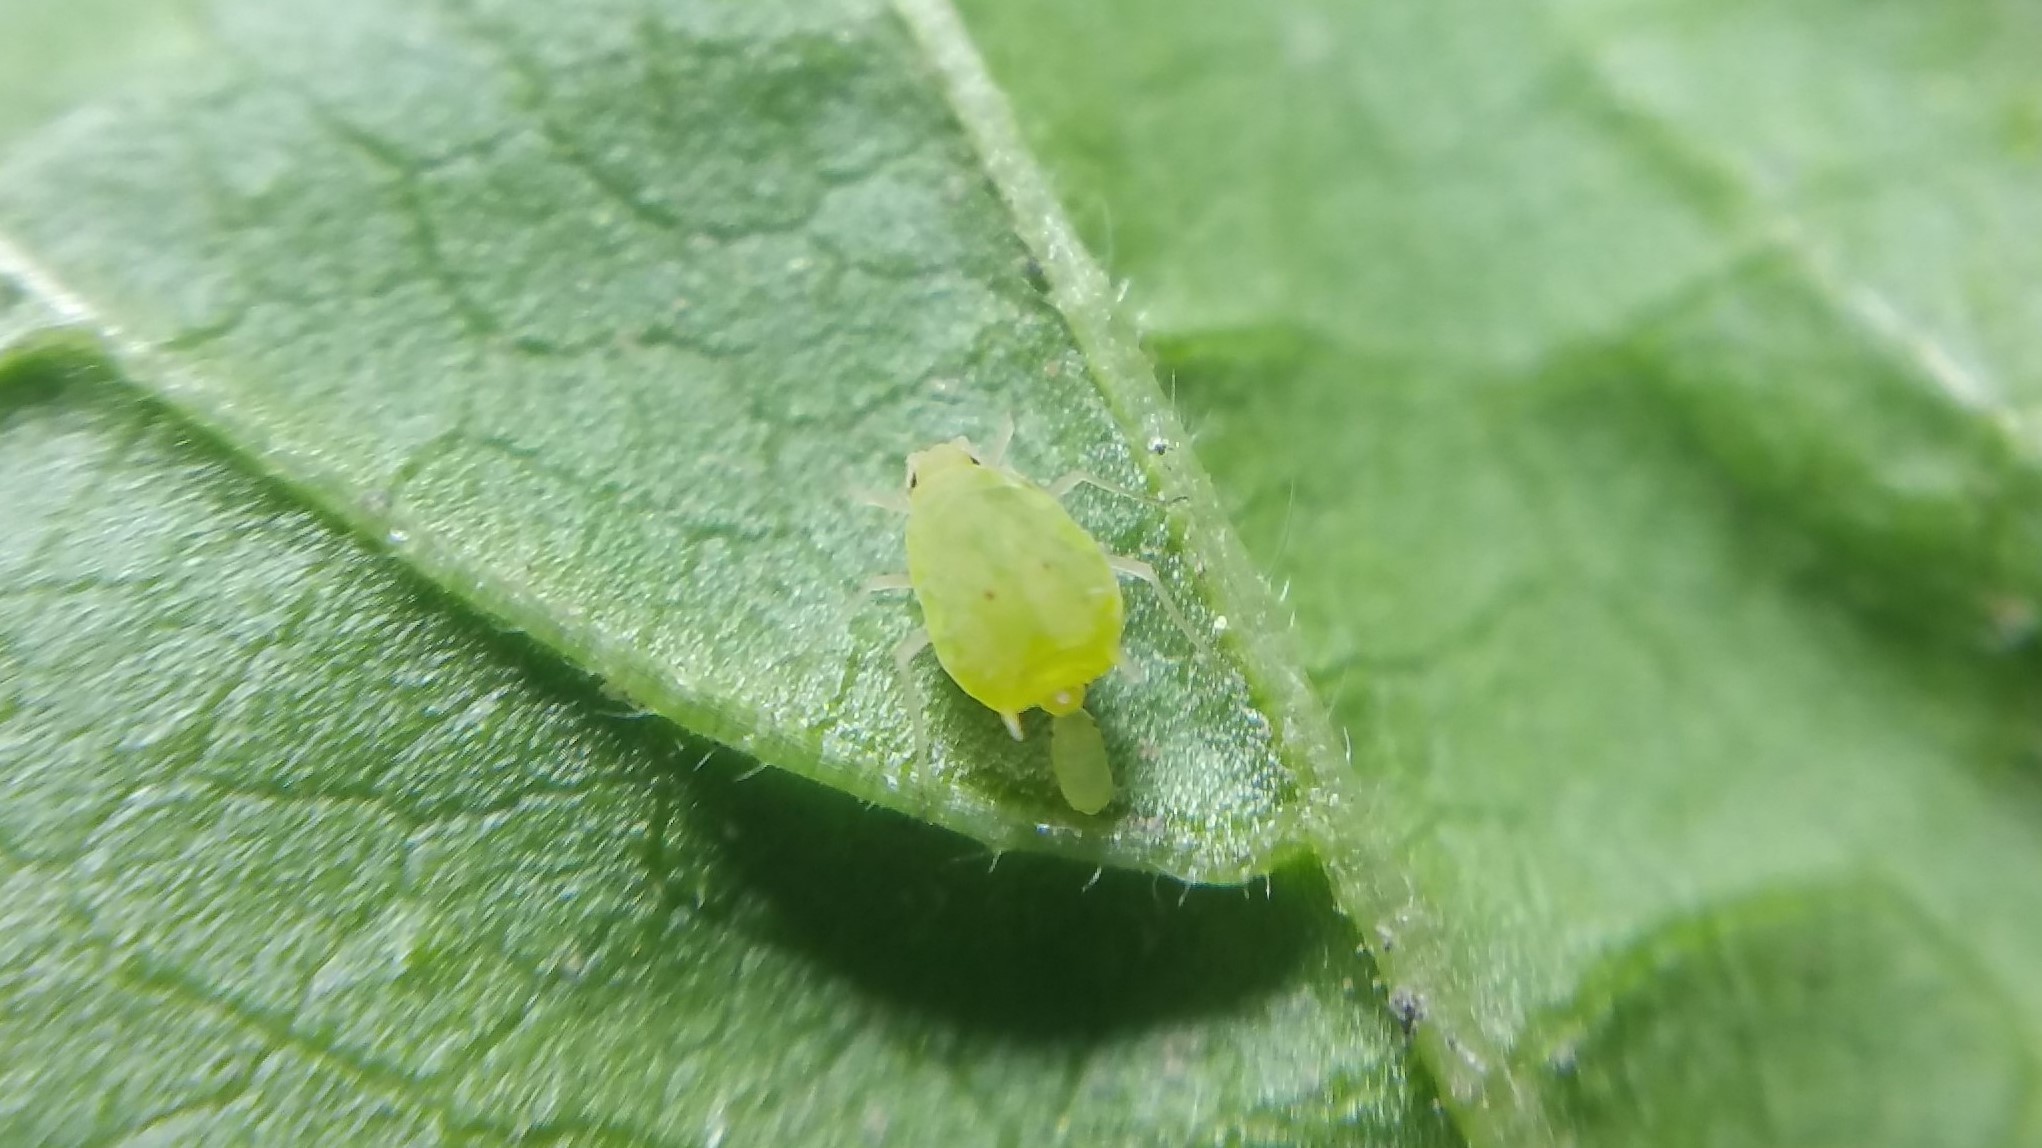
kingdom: Animalia
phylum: Arthropoda
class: Insecta
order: Hemiptera
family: Aphididae
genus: Aphis
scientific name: Aphis umbrella
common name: Umbrella aphid
